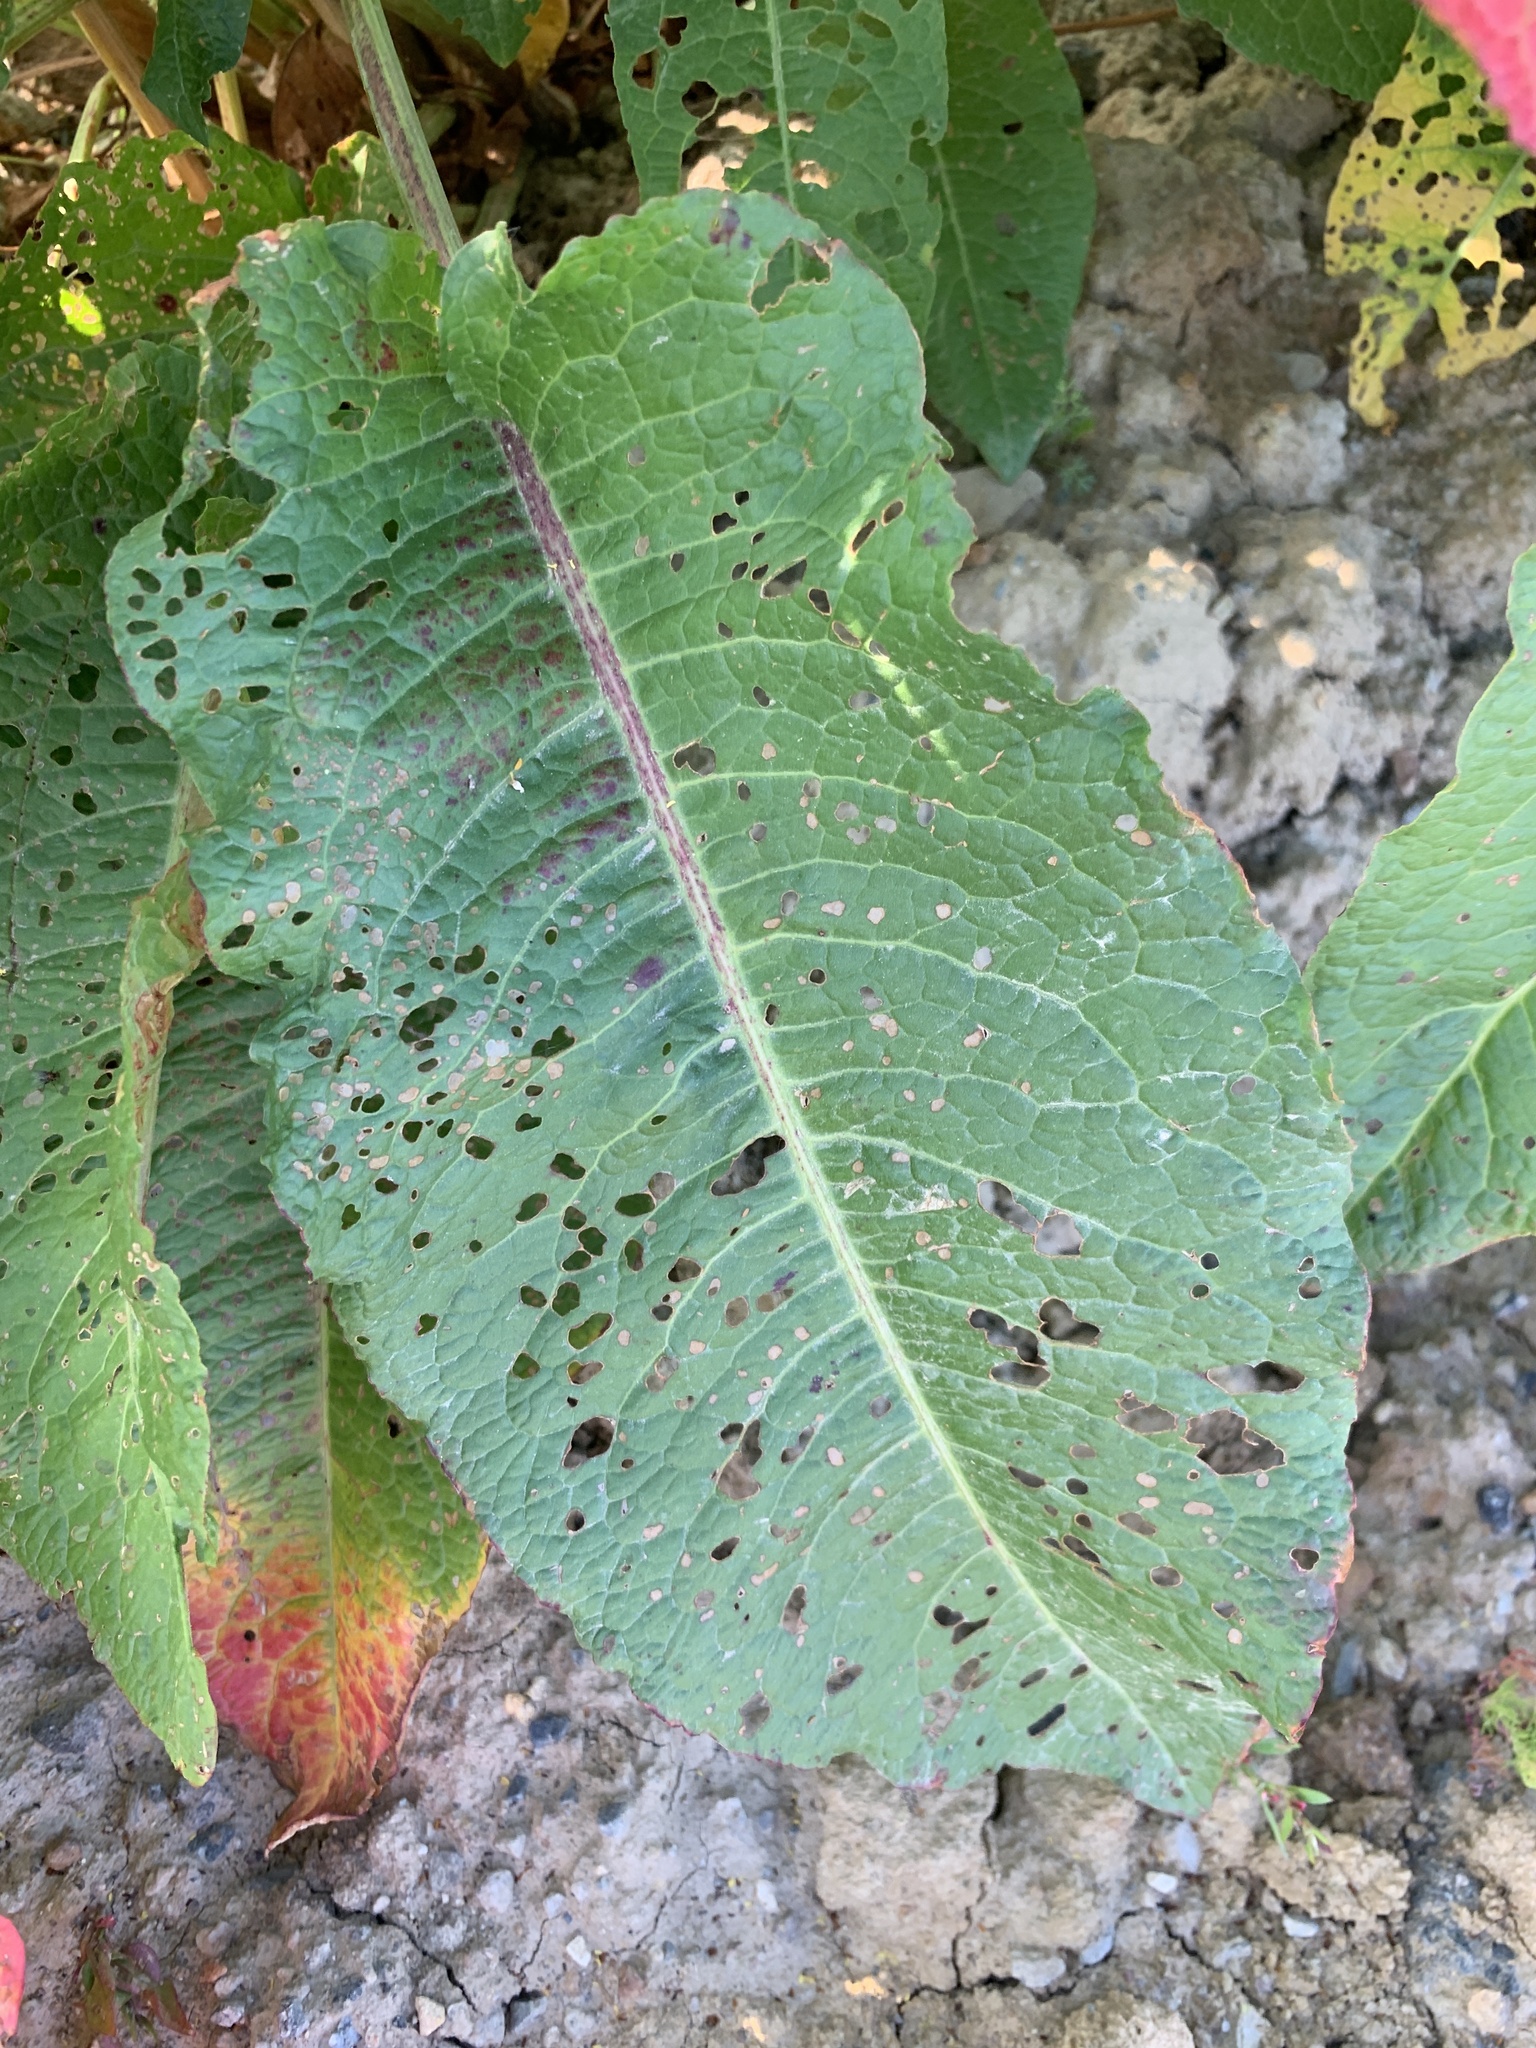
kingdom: Plantae
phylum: Tracheophyta
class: Magnoliopsida
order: Caryophyllales
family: Polygonaceae
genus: Rumex
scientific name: Rumex obtusifolius
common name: Bitter dock
